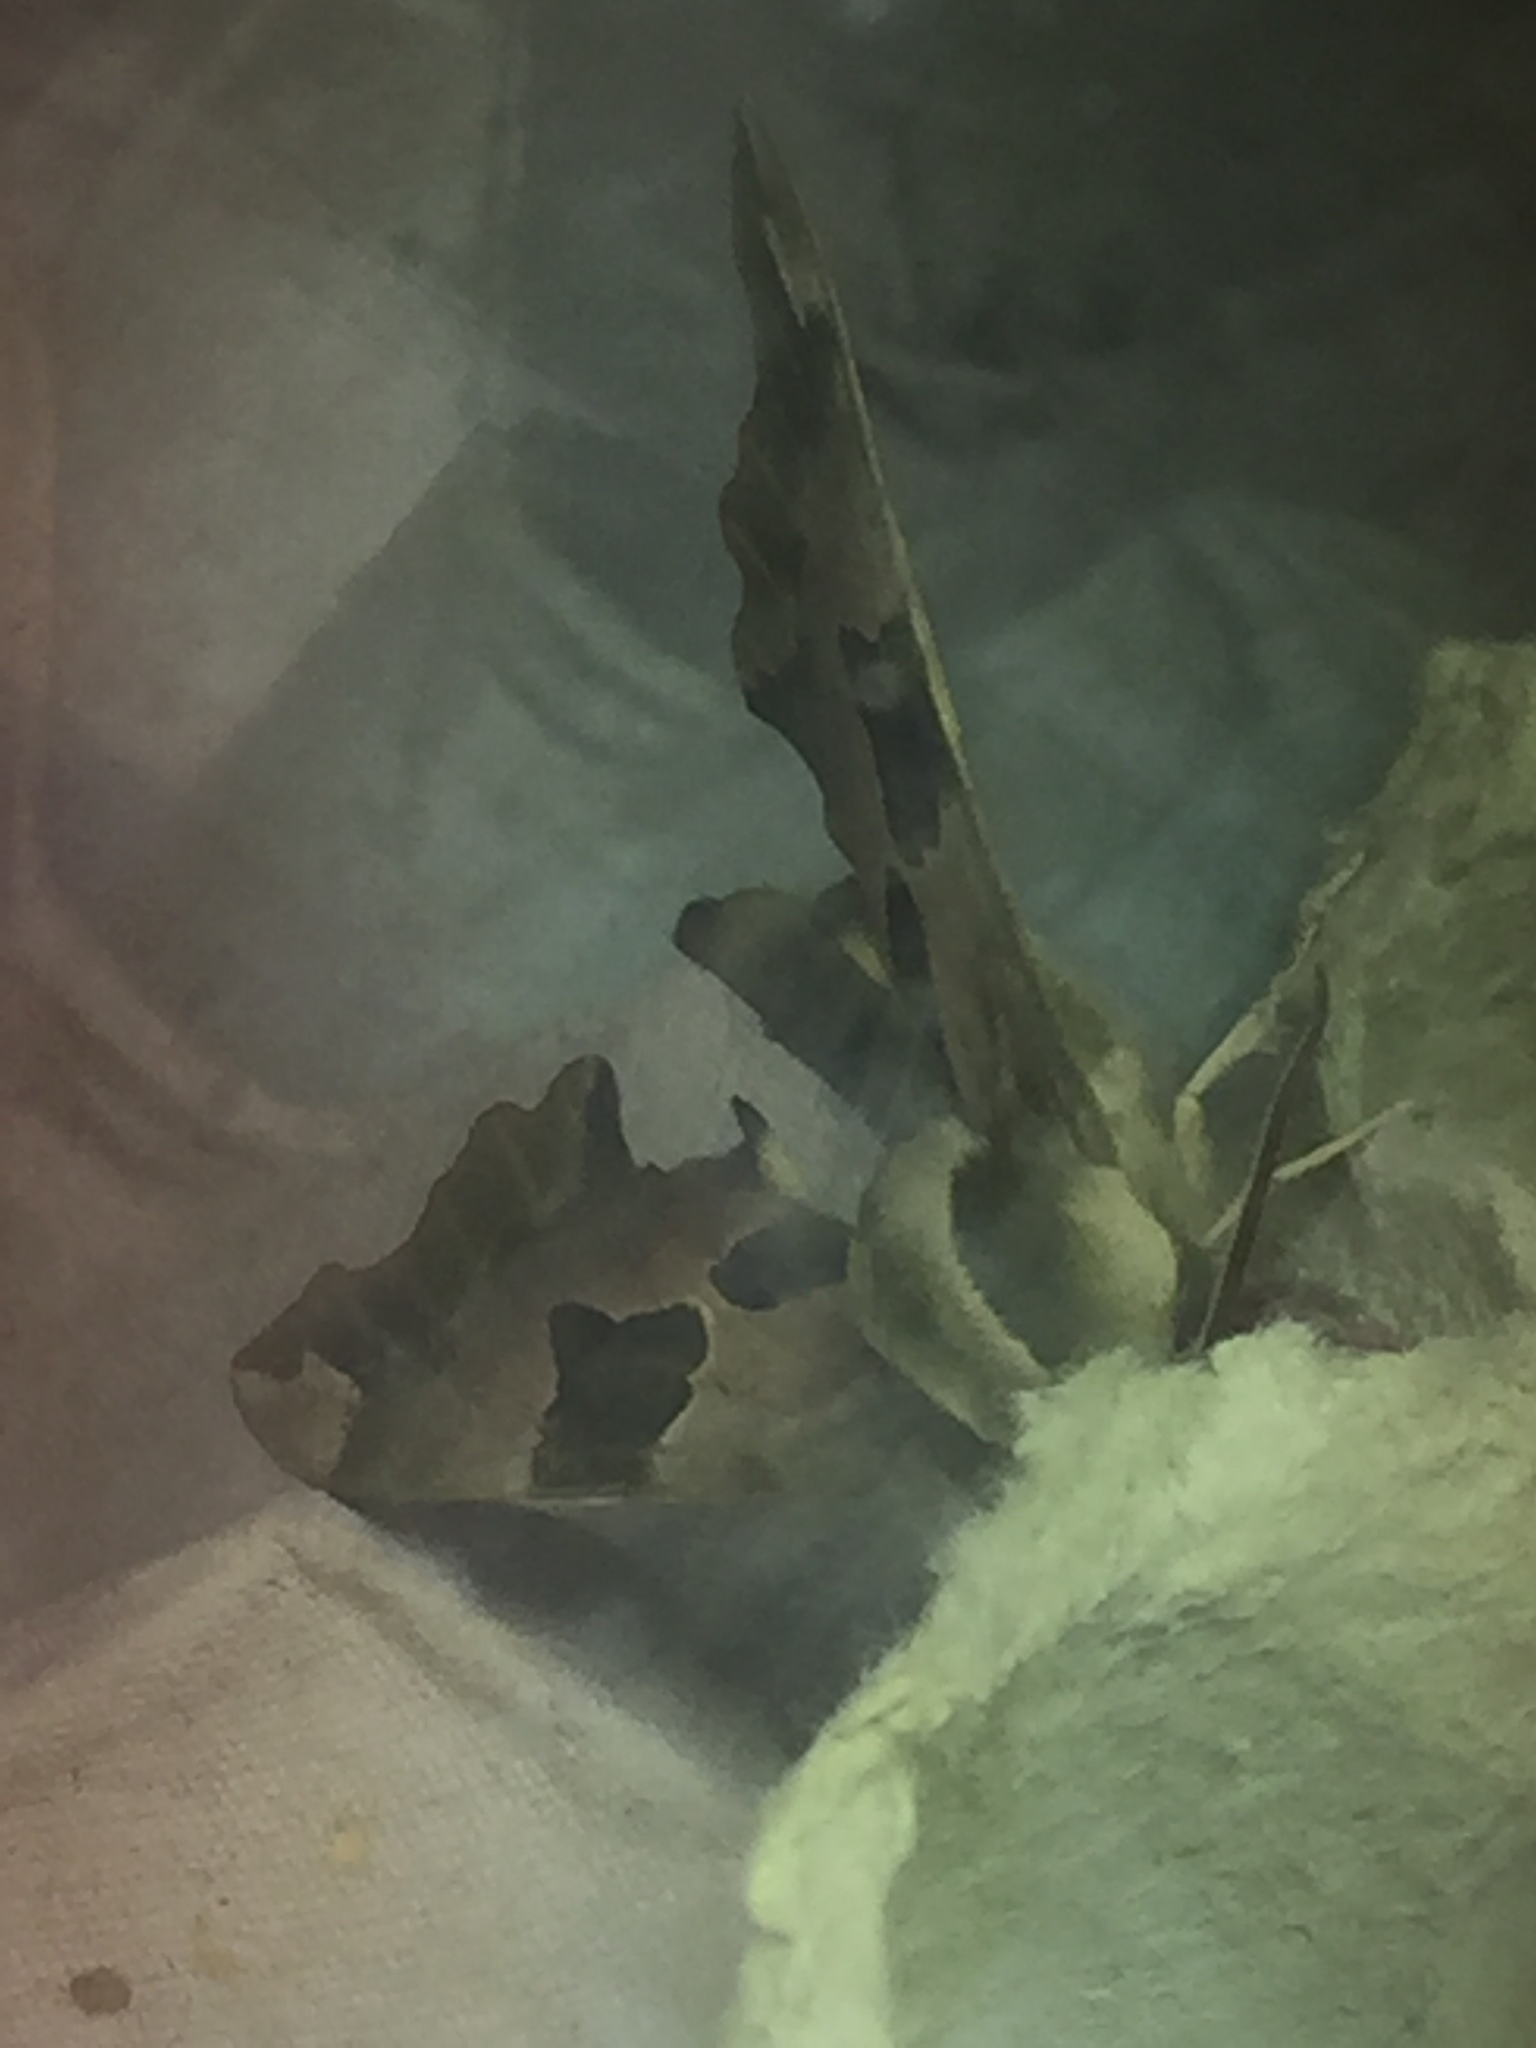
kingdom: Animalia
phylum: Arthropoda
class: Insecta
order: Lepidoptera
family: Sphingidae
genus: Mimas
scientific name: Mimas tiliae
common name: Lime hawk-moth
